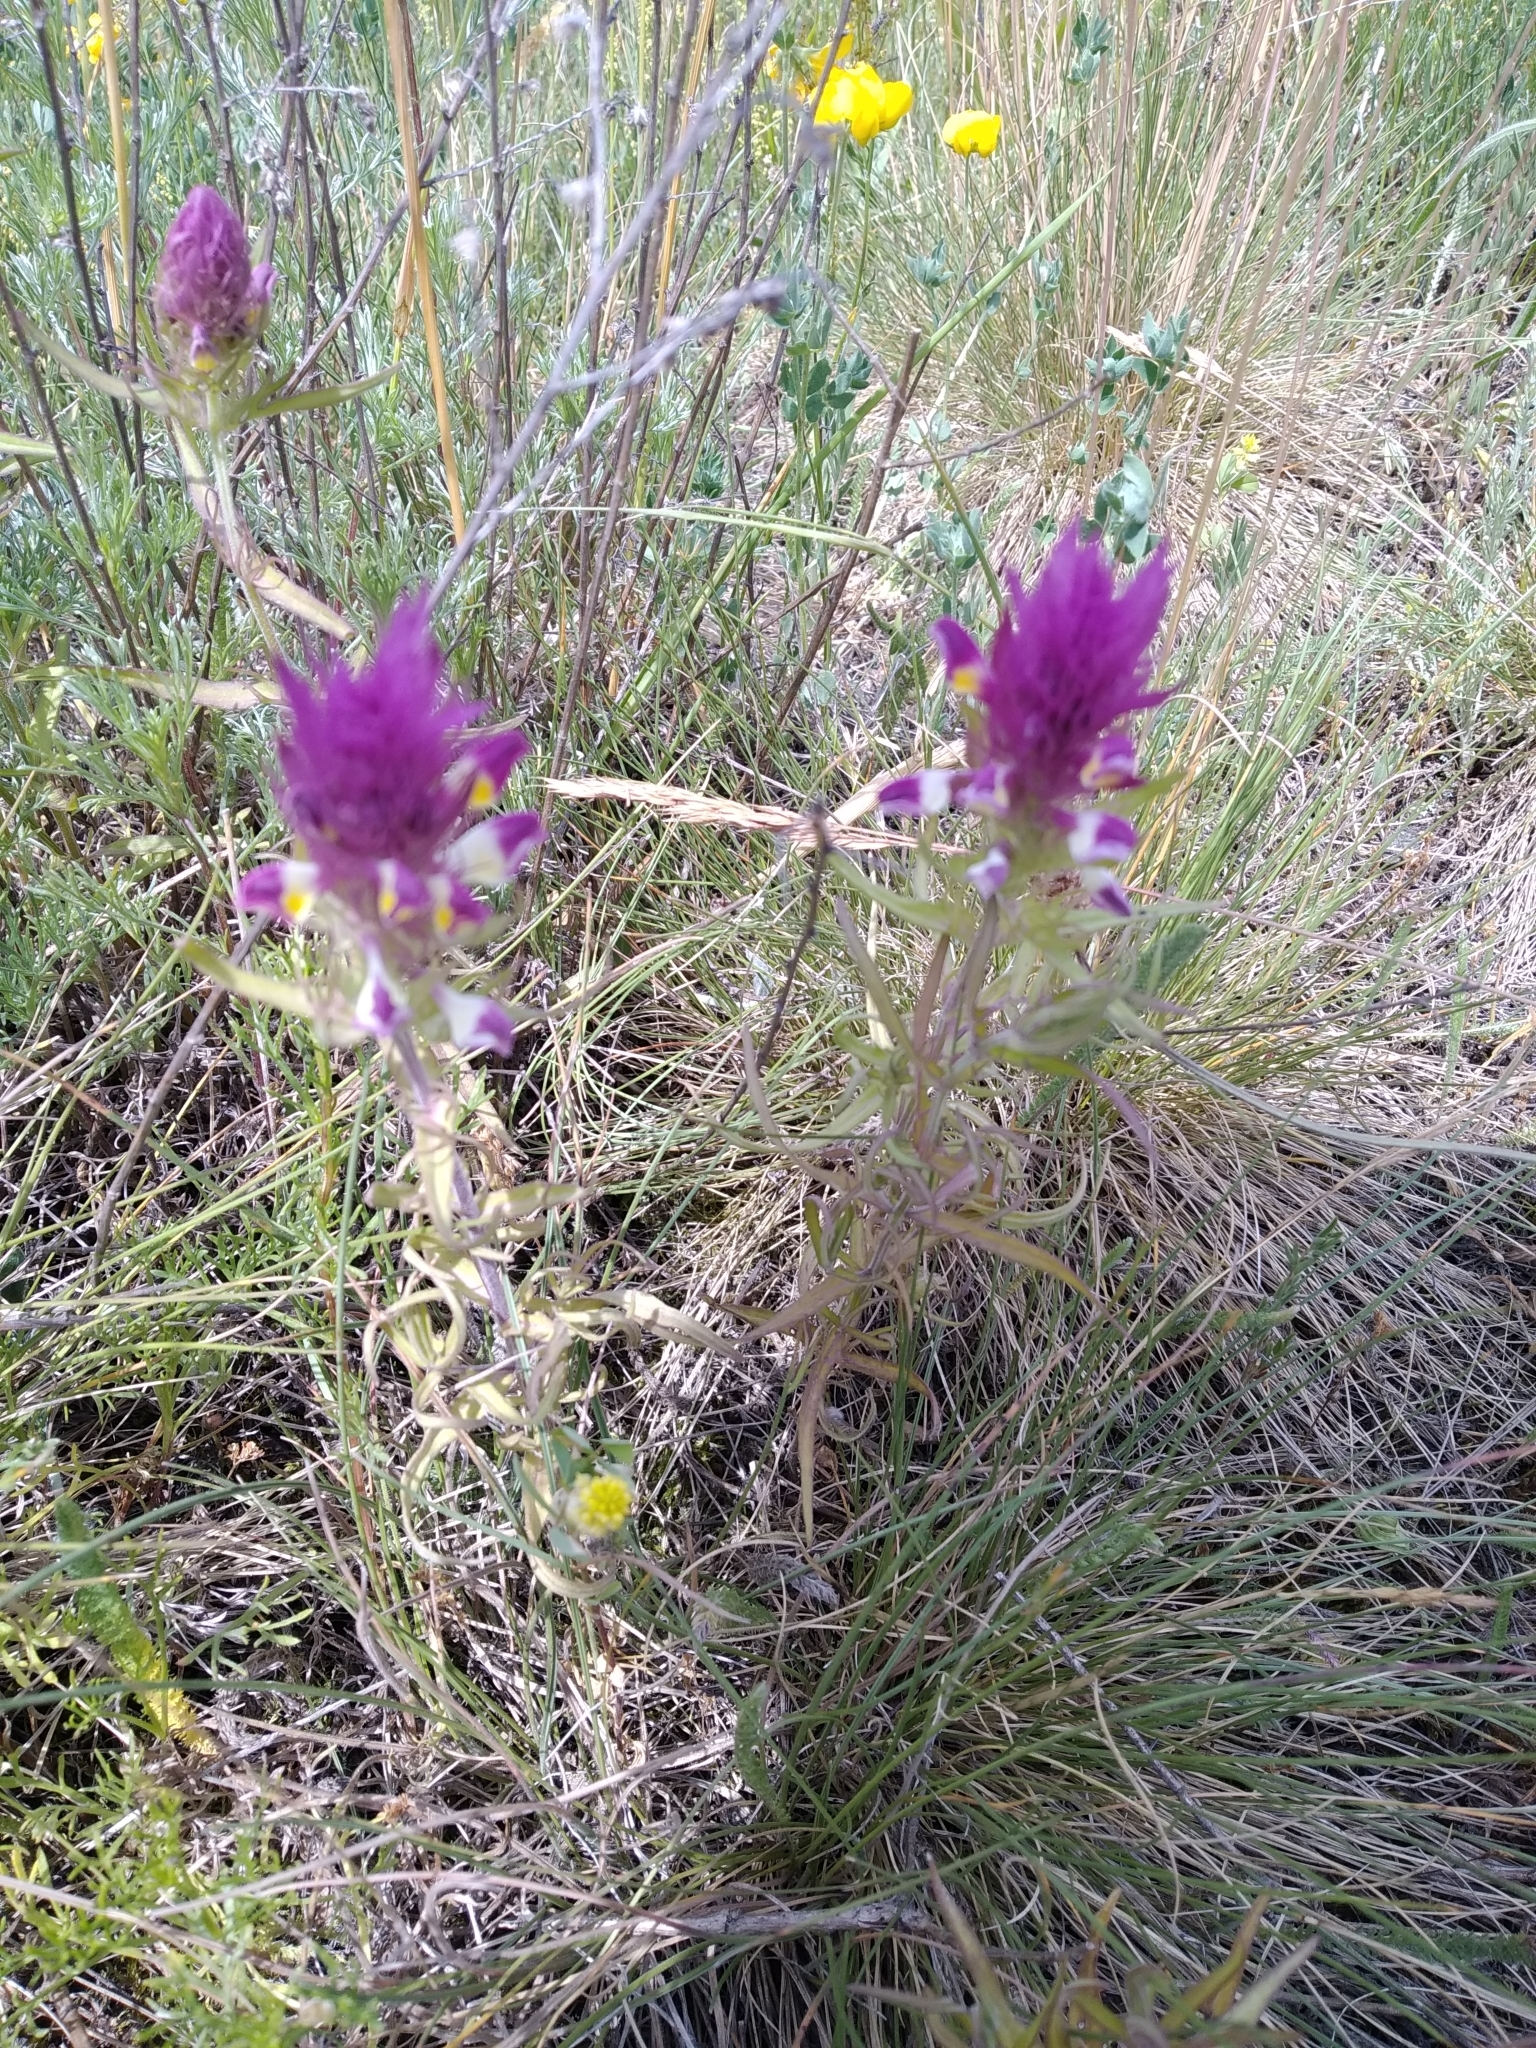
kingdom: Plantae
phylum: Tracheophyta
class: Magnoliopsida
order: Lamiales
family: Orobanchaceae
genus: Melampyrum
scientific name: Melampyrum arvense
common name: Field cow-wheat
